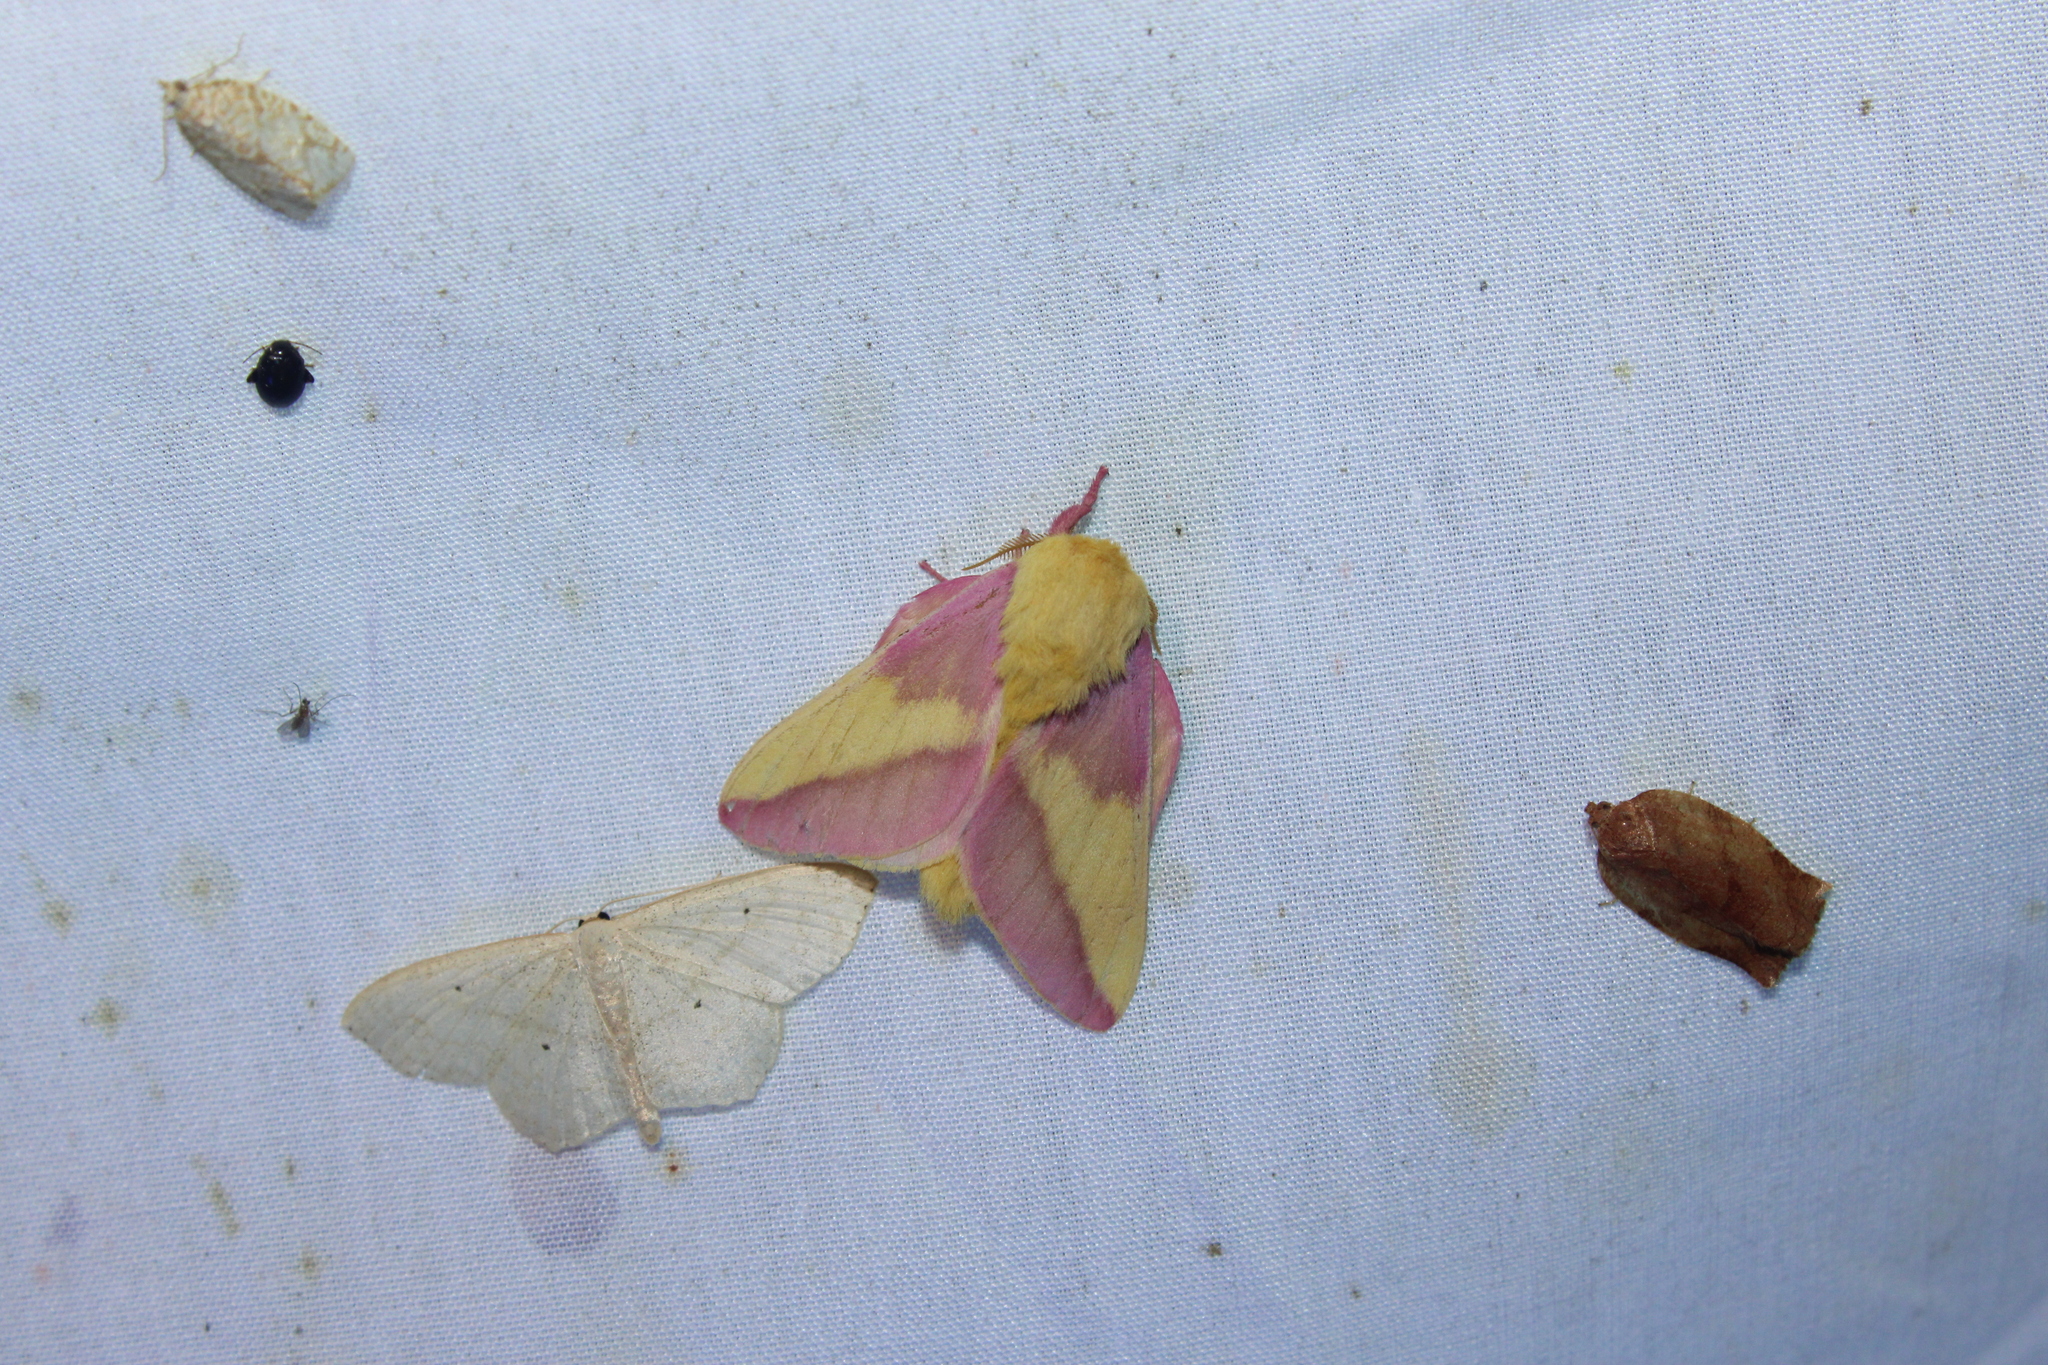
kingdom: Animalia
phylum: Arthropoda
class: Insecta
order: Lepidoptera
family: Saturniidae
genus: Dryocampa
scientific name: Dryocampa rubicunda
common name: Rosy maple moth
